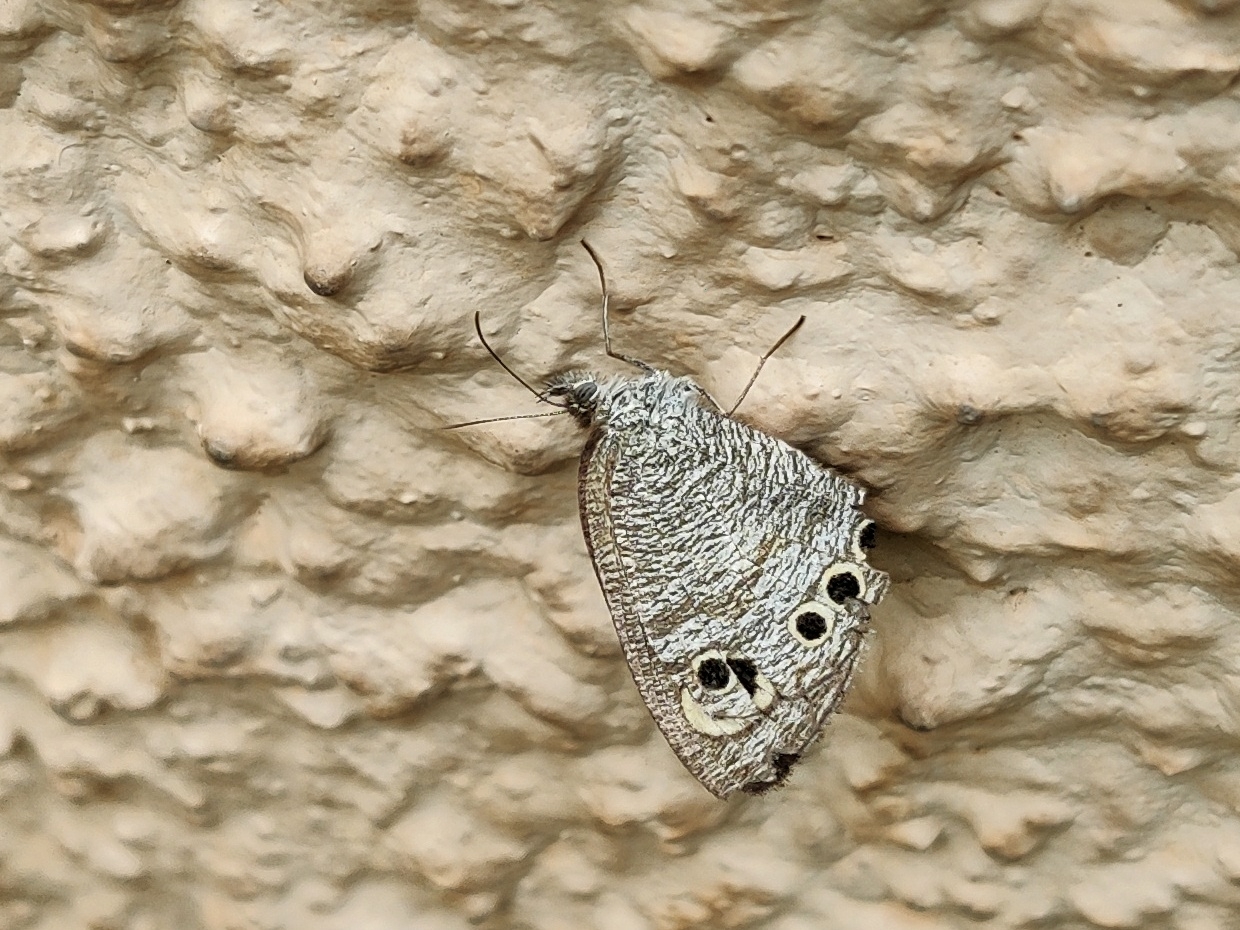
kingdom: Animalia
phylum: Arthropoda
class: Insecta
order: Lepidoptera
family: Nymphalidae
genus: Ypthima
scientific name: Ypthima huebneri
